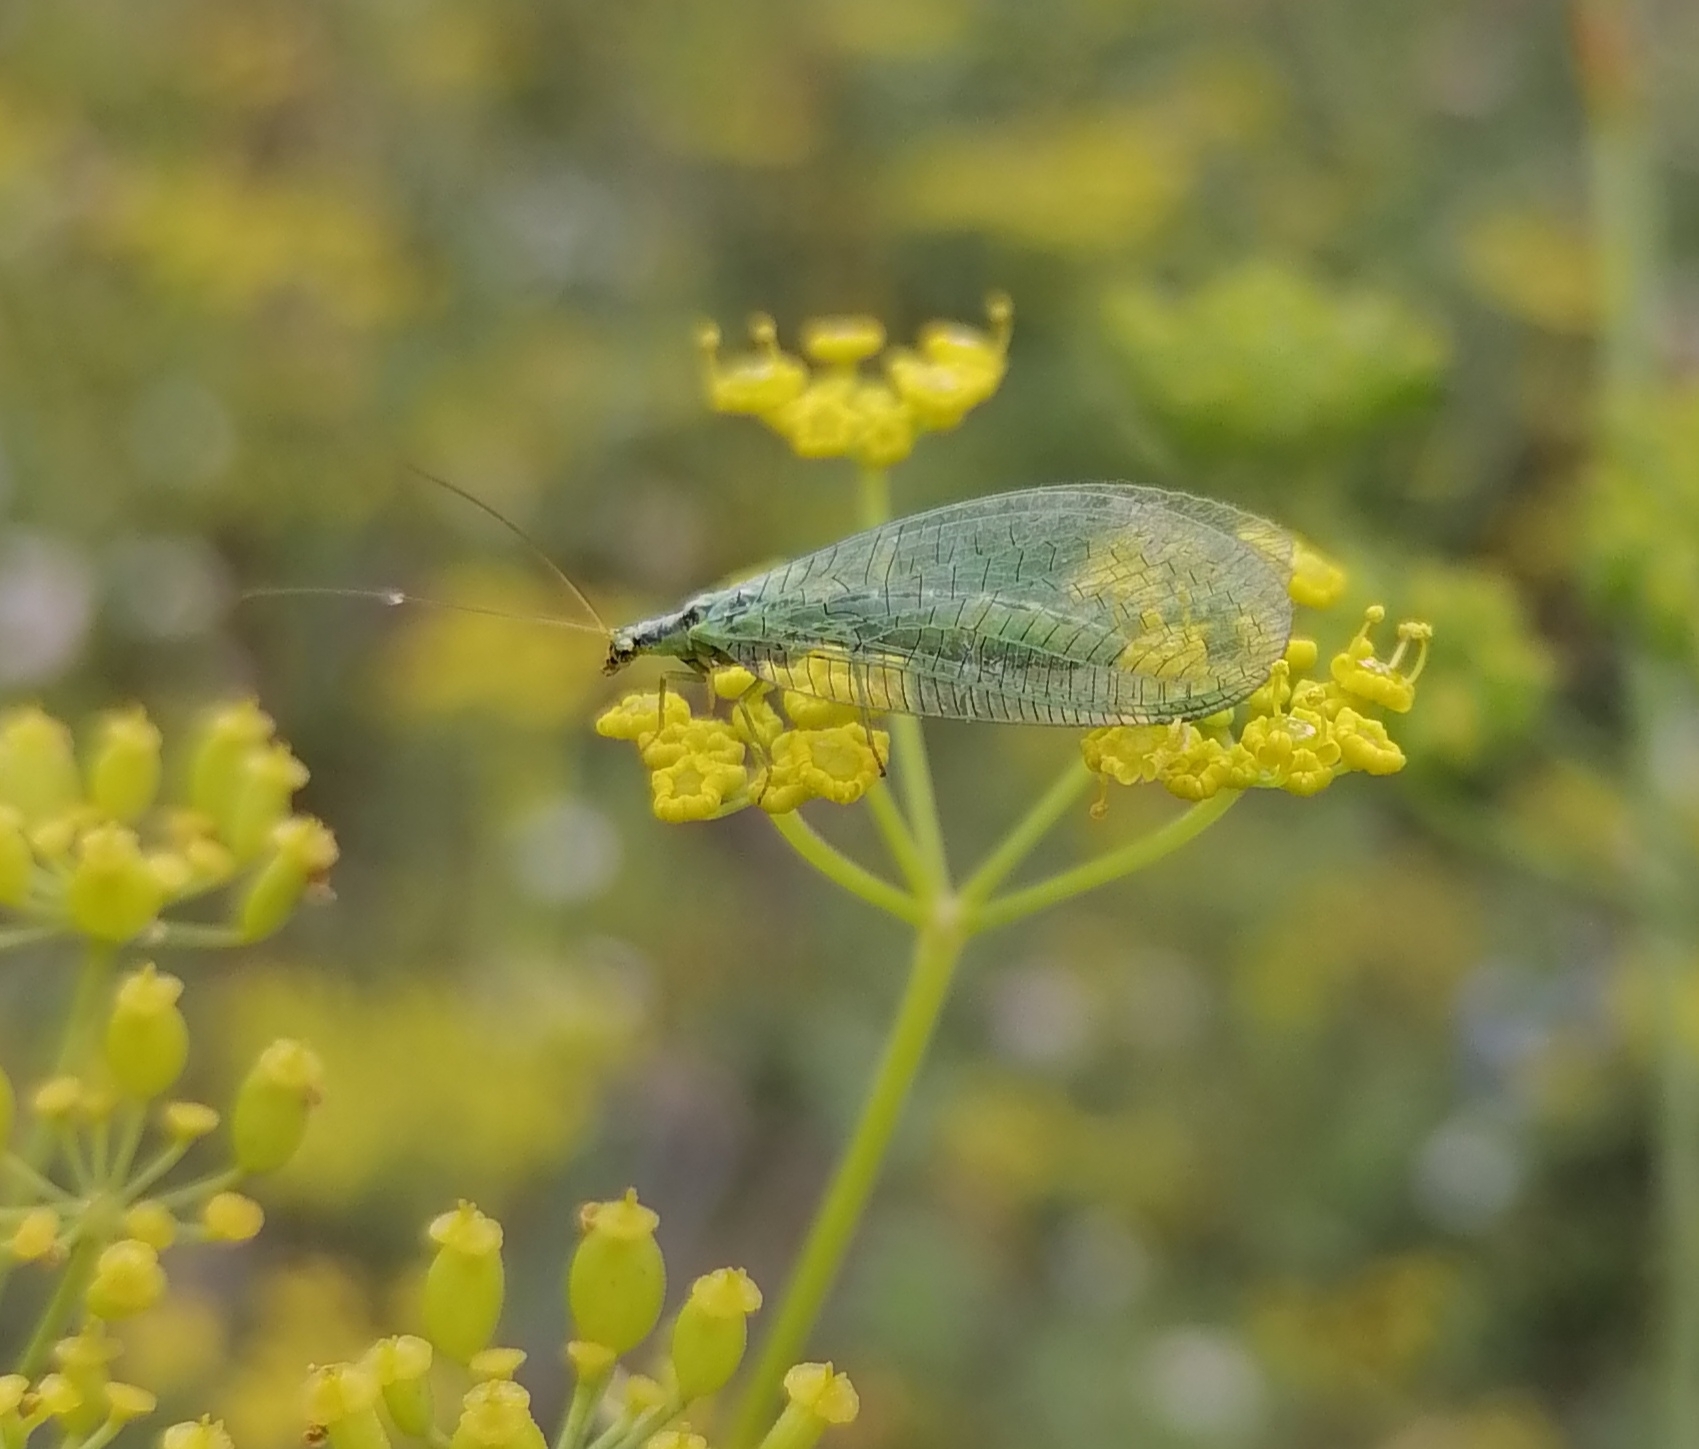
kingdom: Animalia
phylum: Arthropoda
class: Insecta
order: Neuroptera
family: Chrysopidae
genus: Chrysopa
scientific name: Chrysopa walkeri
